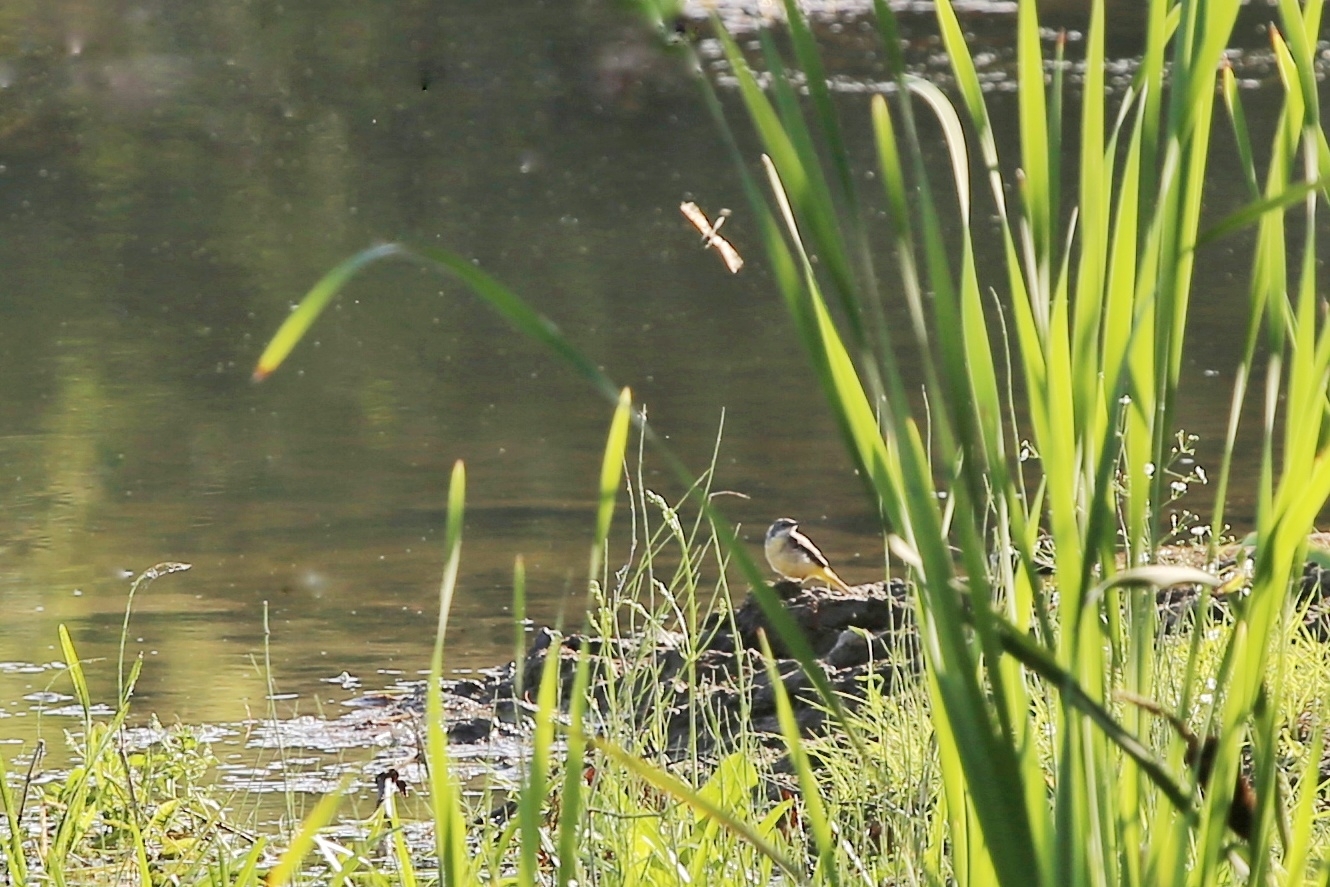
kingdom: Animalia
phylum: Chordata
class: Aves
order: Passeriformes
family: Motacillidae
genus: Motacilla
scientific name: Motacilla cinerea
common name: Grey wagtail
